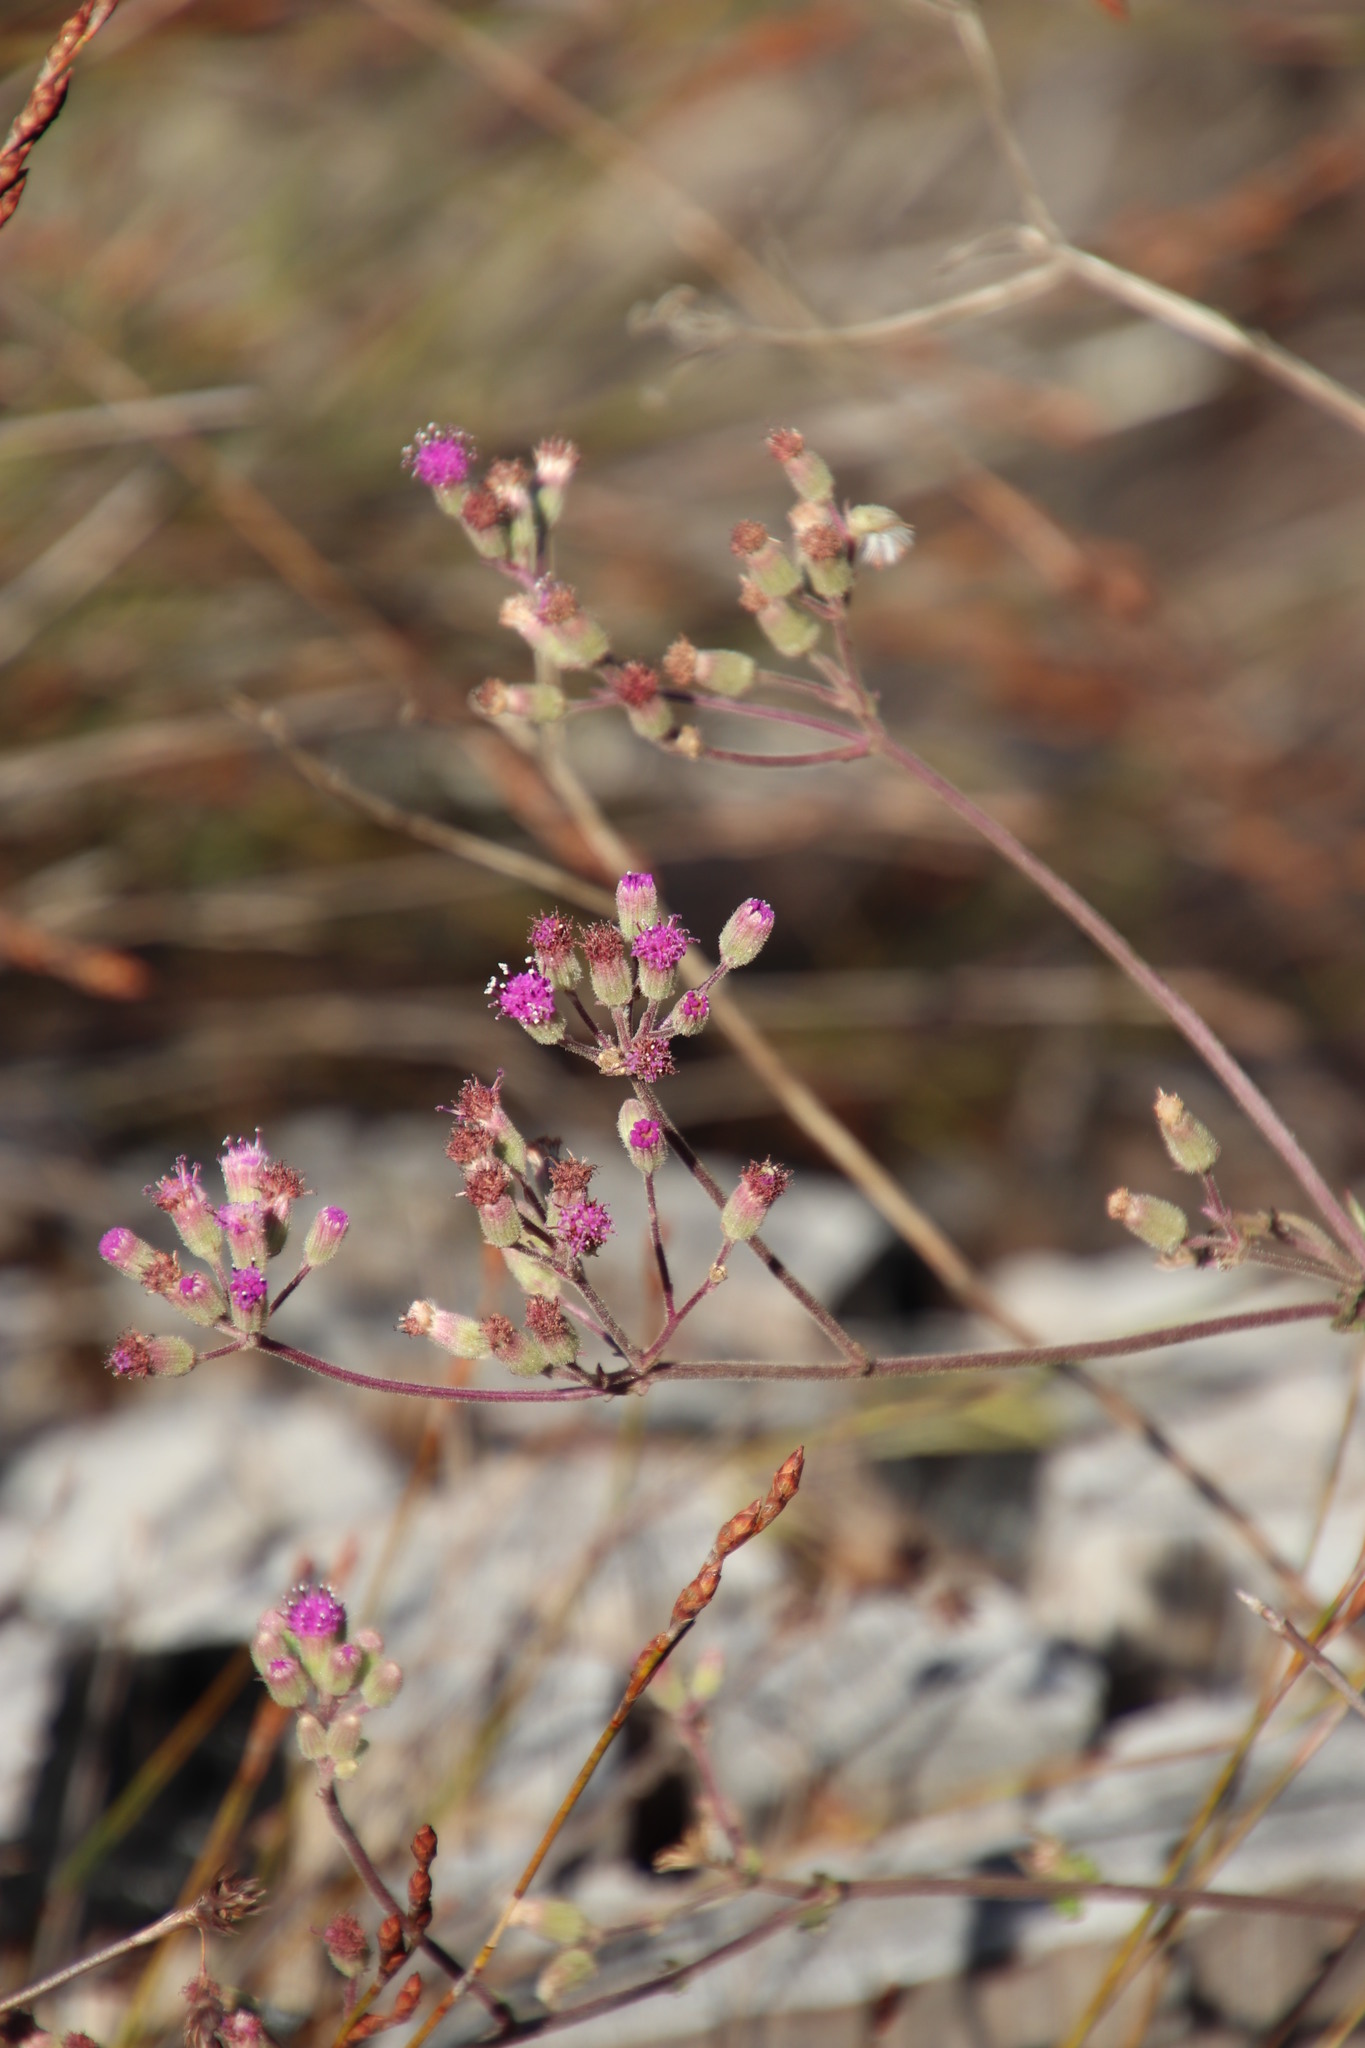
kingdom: Plantae
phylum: Tracheophyta
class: Magnoliopsida
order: Asterales
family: Asteraceae
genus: Senecio
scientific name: Senecio purpureus
